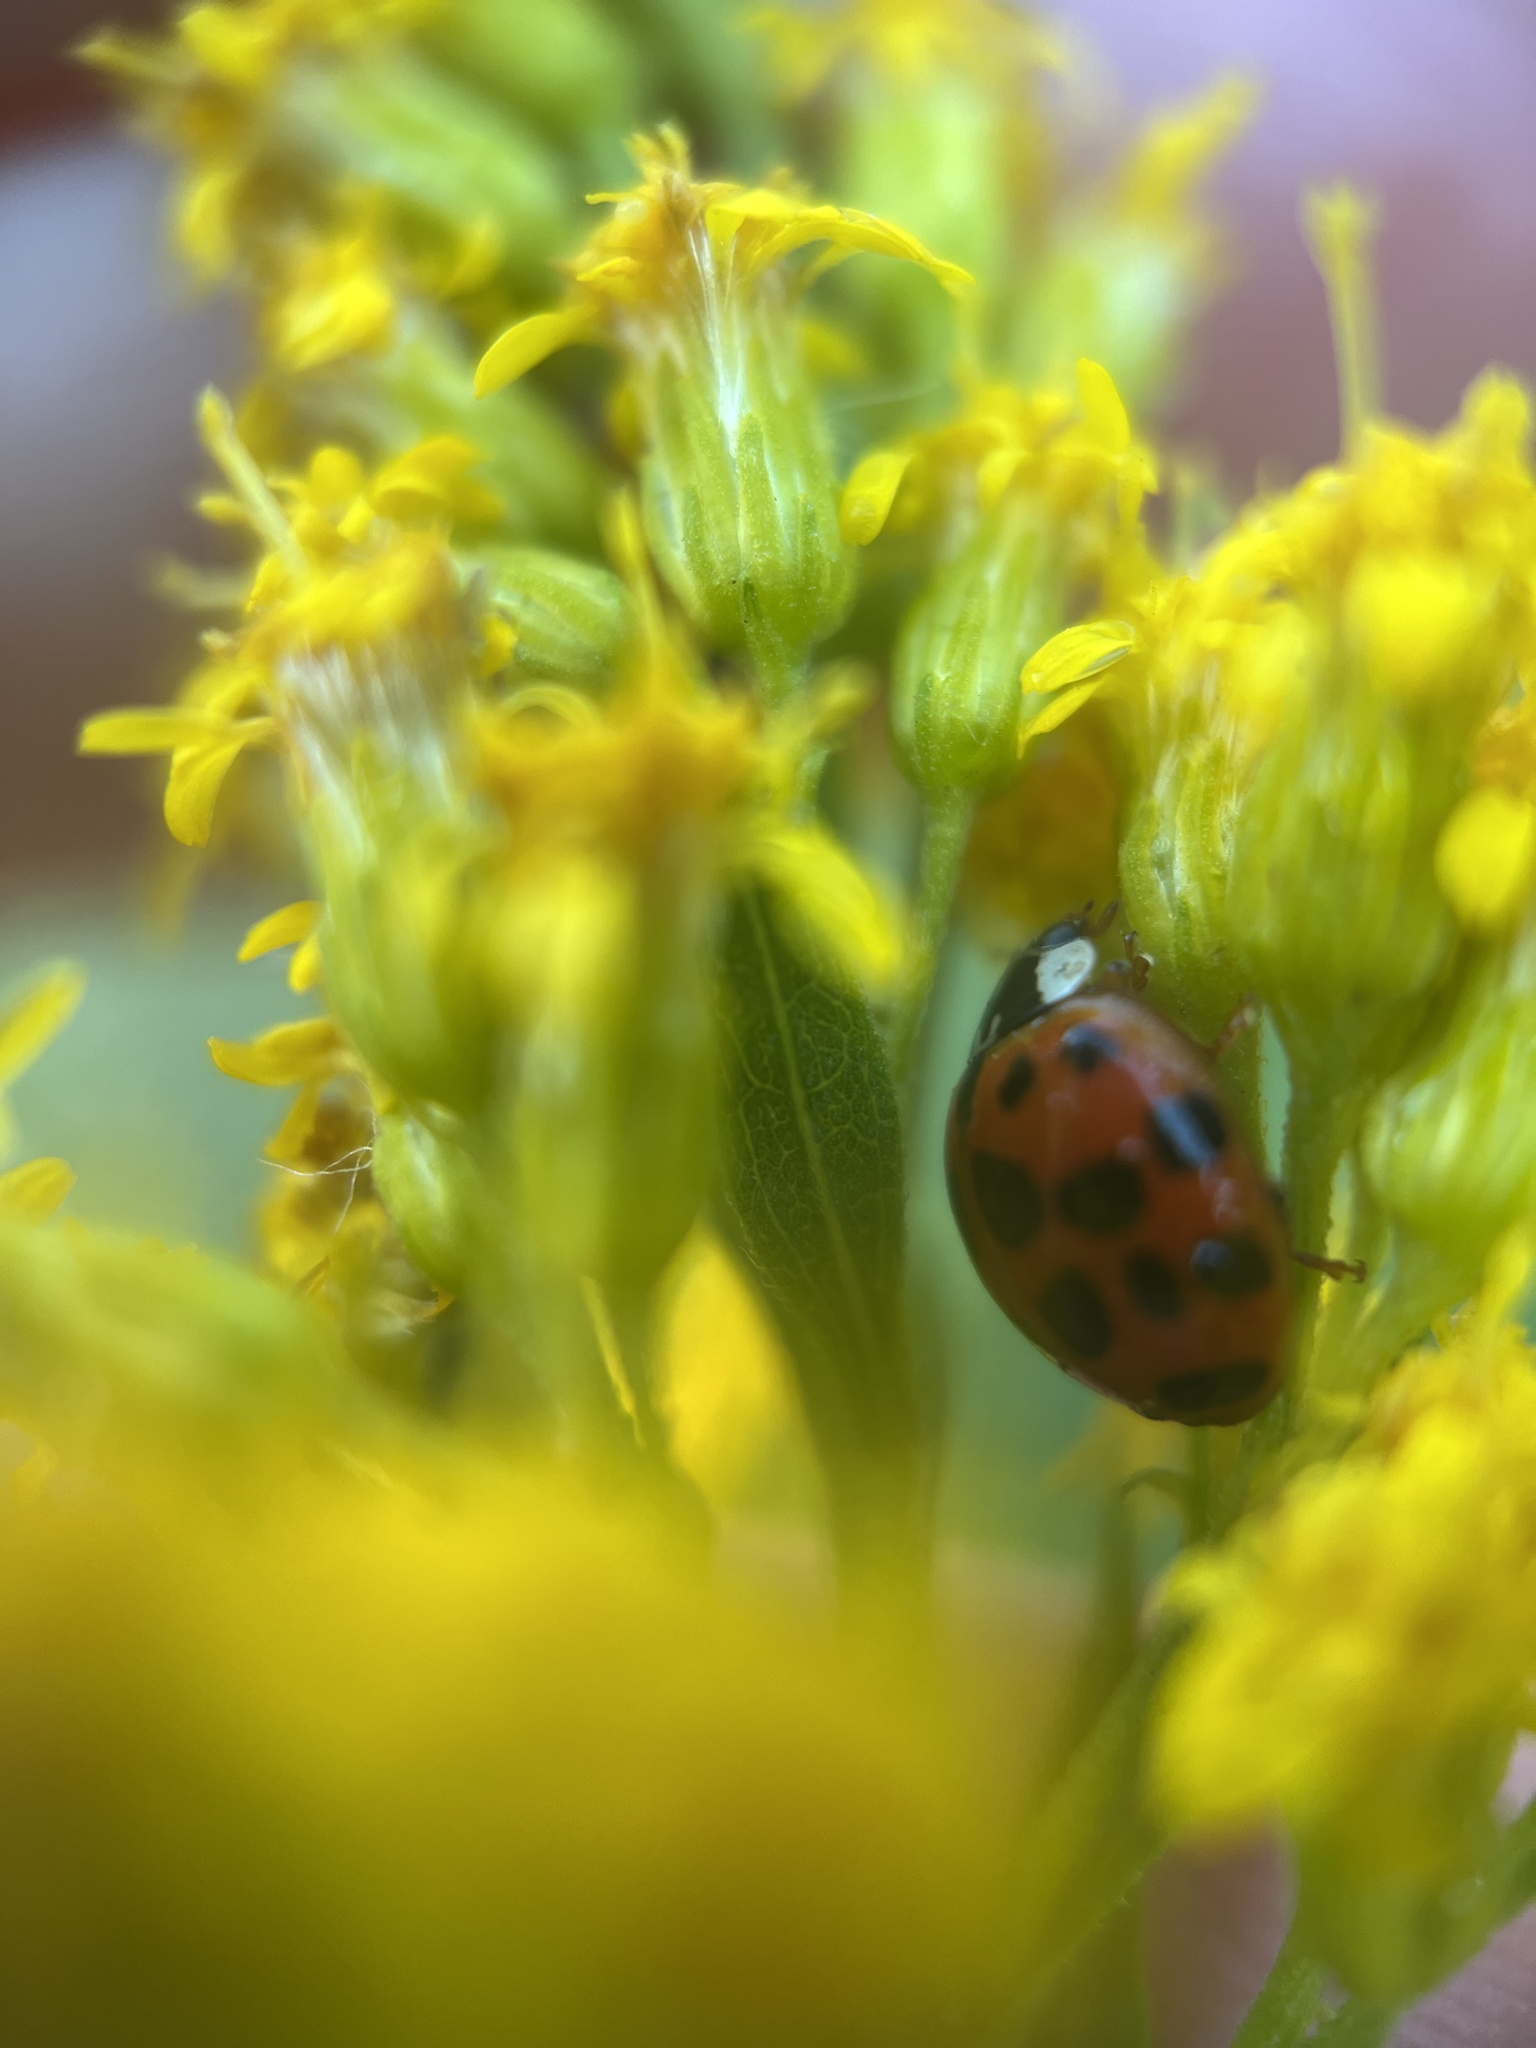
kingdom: Animalia
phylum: Arthropoda
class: Insecta
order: Coleoptera
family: Coccinellidae
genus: Harmonia
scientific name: Harmonia axyridis
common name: Harlequin ladybird
